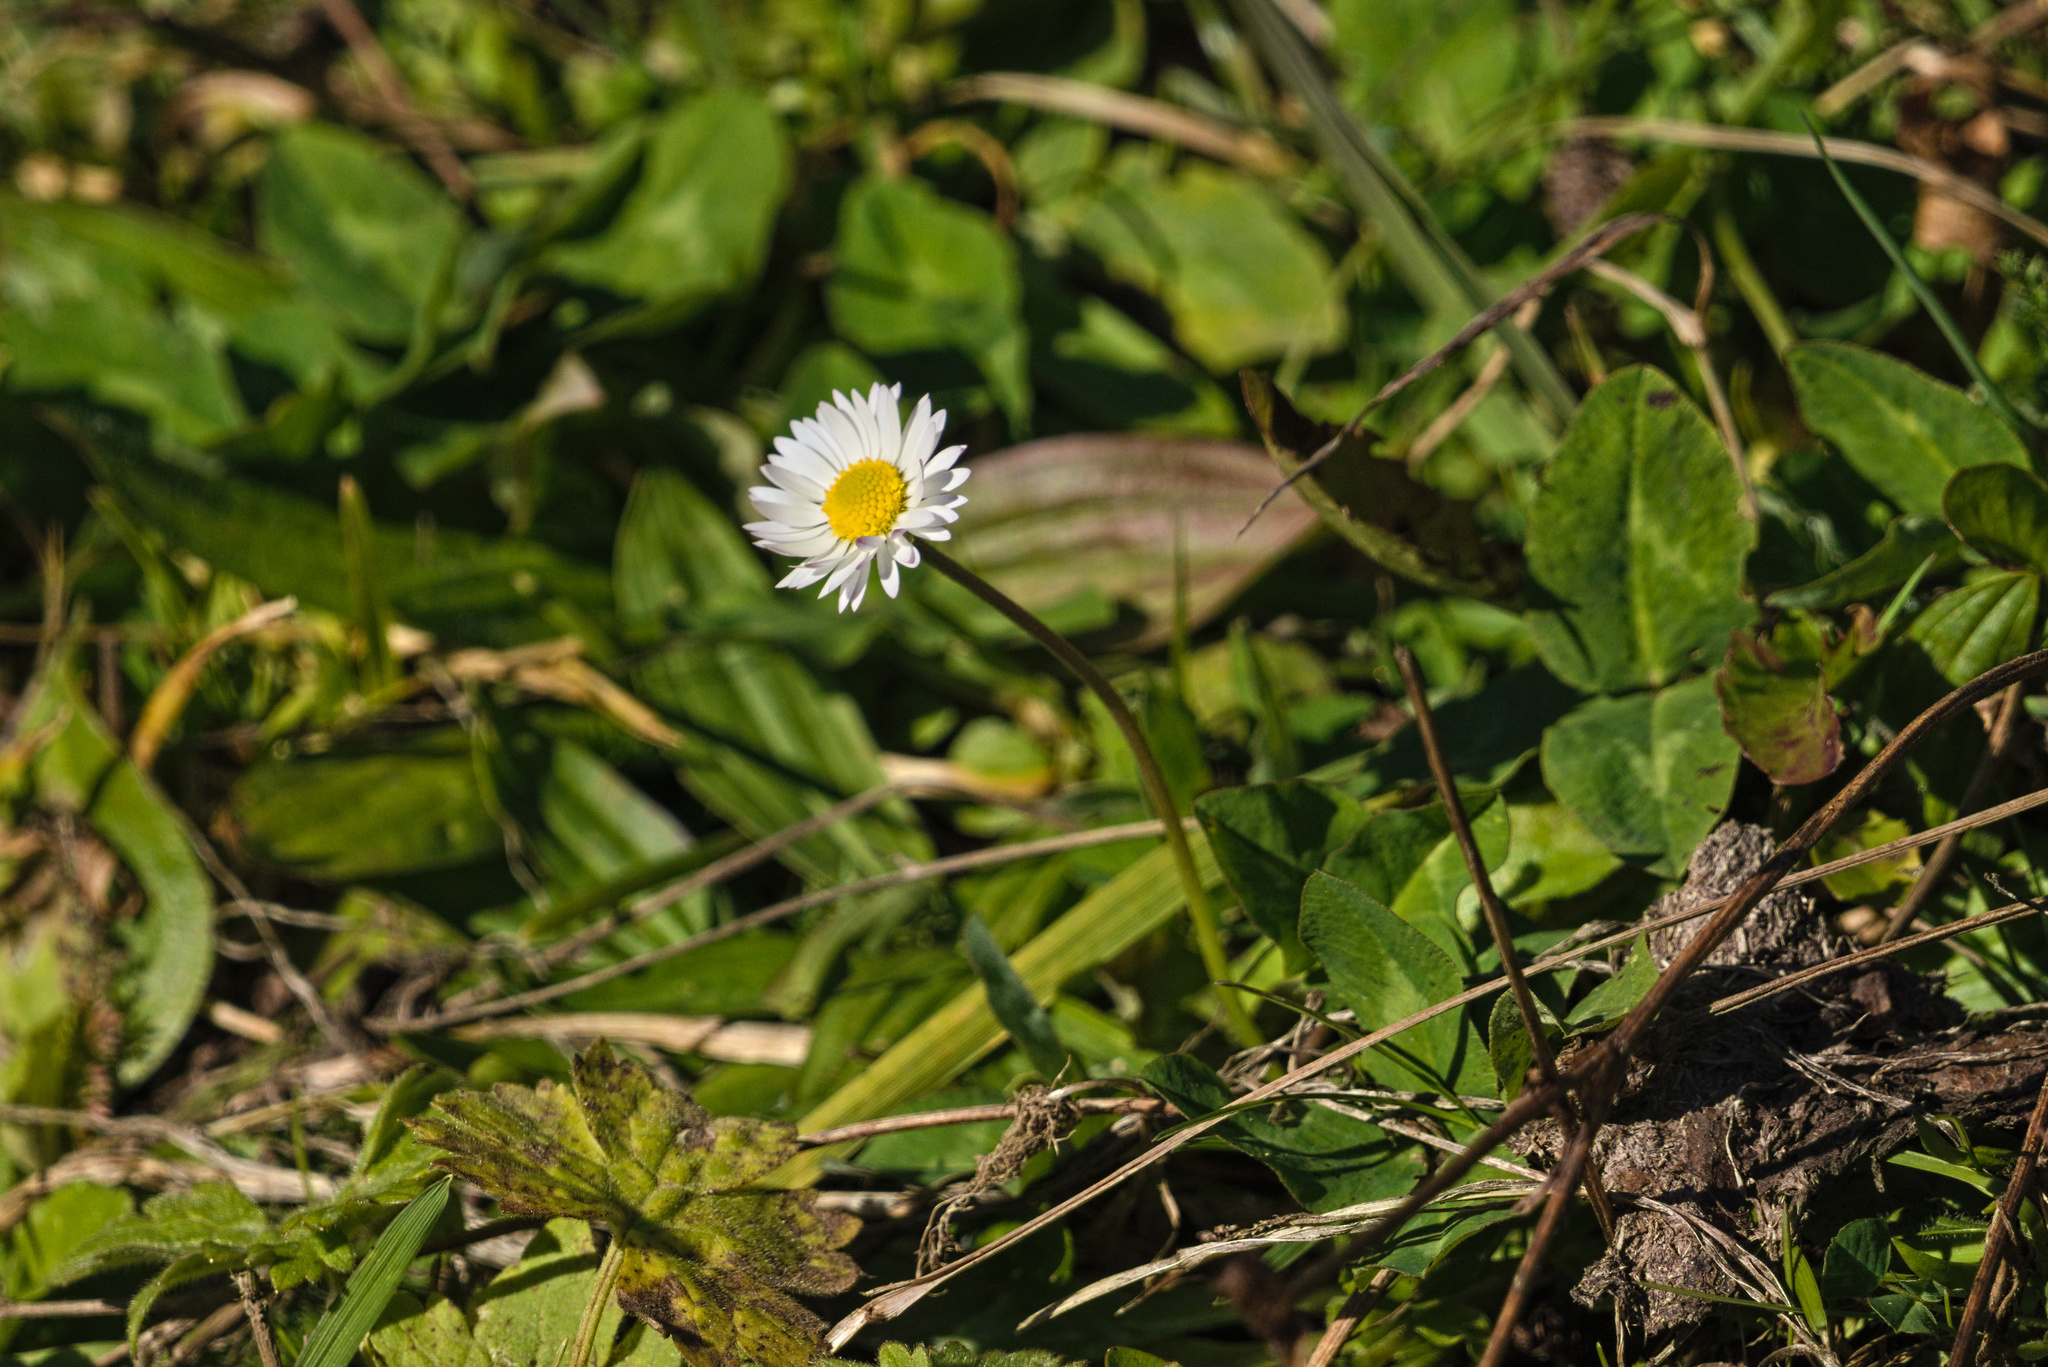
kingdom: Plantae
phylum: Tracheophyta
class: Magnoliopsida
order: Asterales
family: Asteraceae
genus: Bellis
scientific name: Bellis perennis
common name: Lawndaisy
